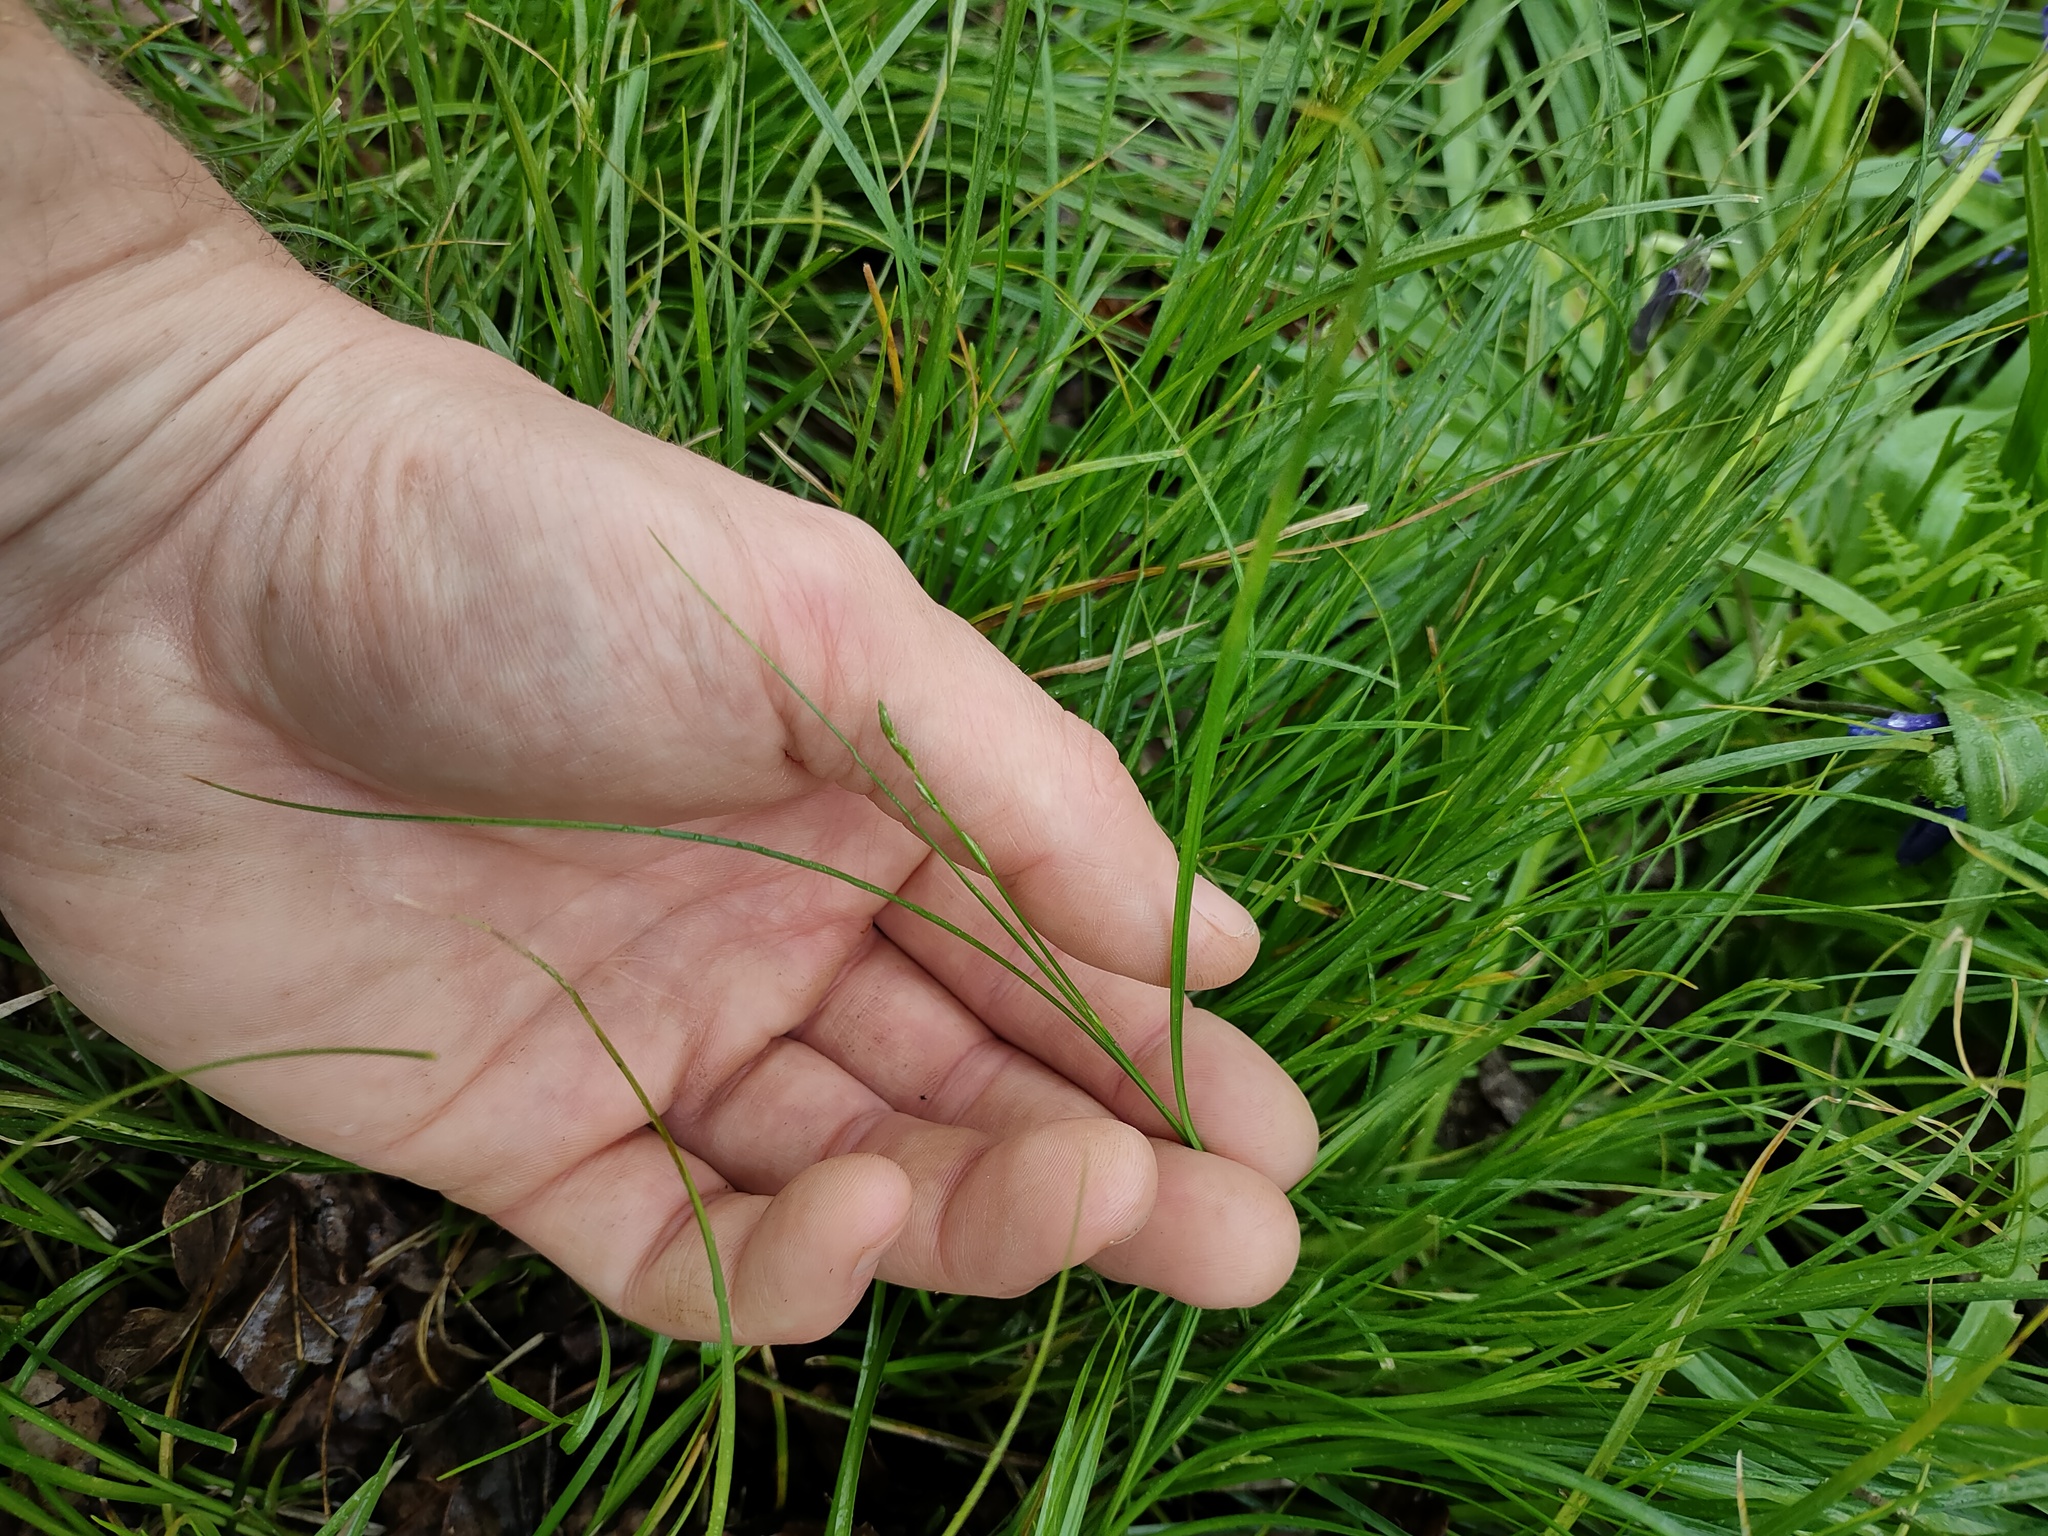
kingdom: Plantae
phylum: Tracheophyta
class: Liliopsida
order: Poales
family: Cyperaceae
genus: Carex
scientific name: Carex remota
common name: Remote sedge
